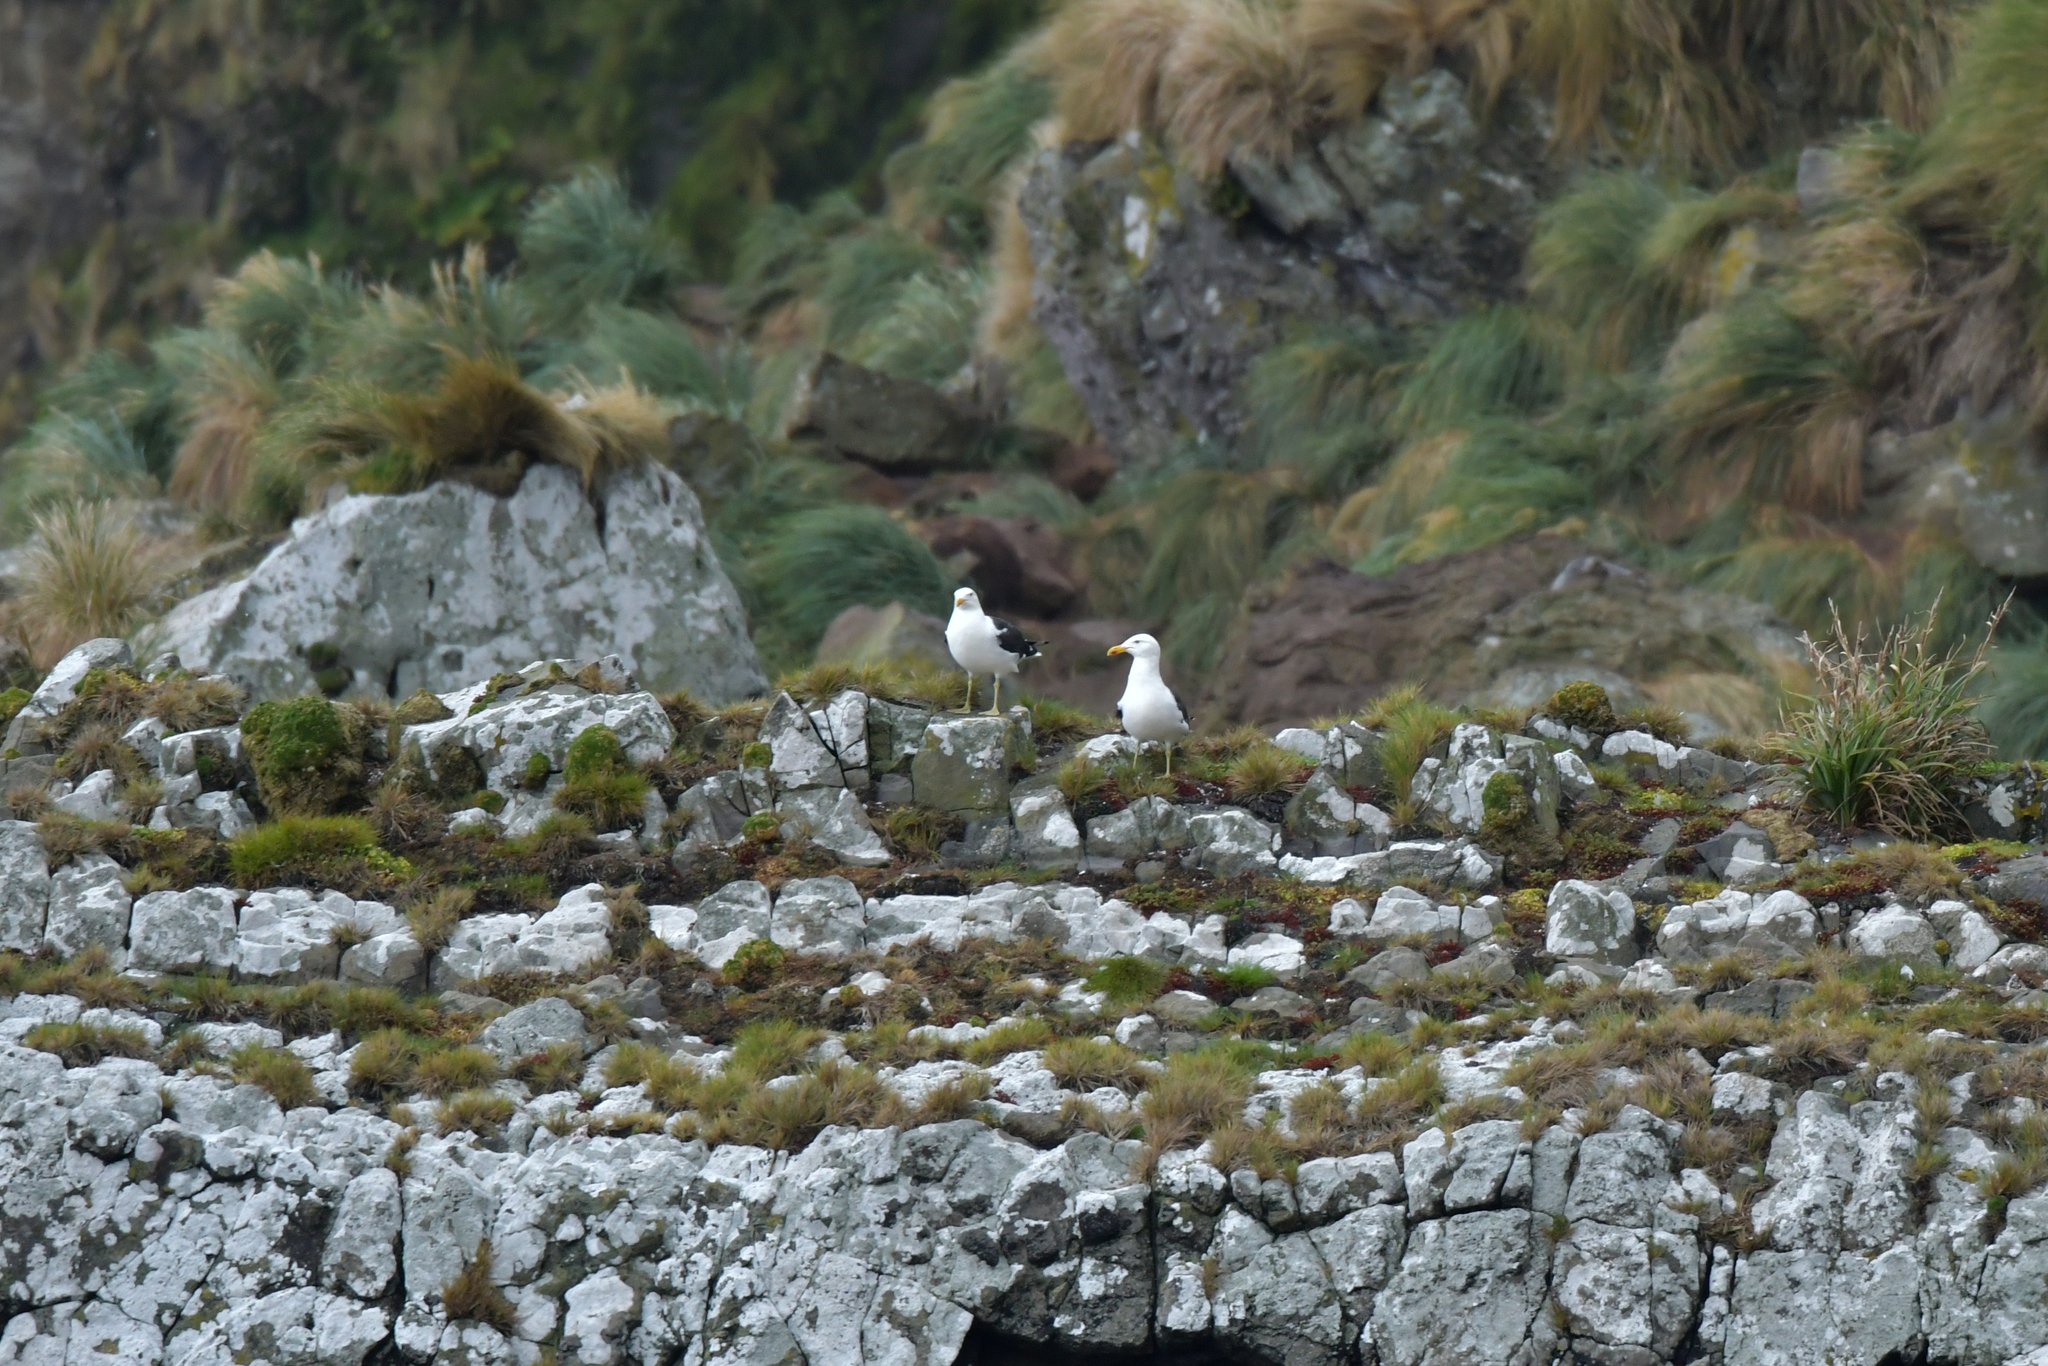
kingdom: Animalia
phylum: Chordata
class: Aves
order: Charadriiformes
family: Laridae
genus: Larus
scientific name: Larus dominicanus
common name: Kelp gull
